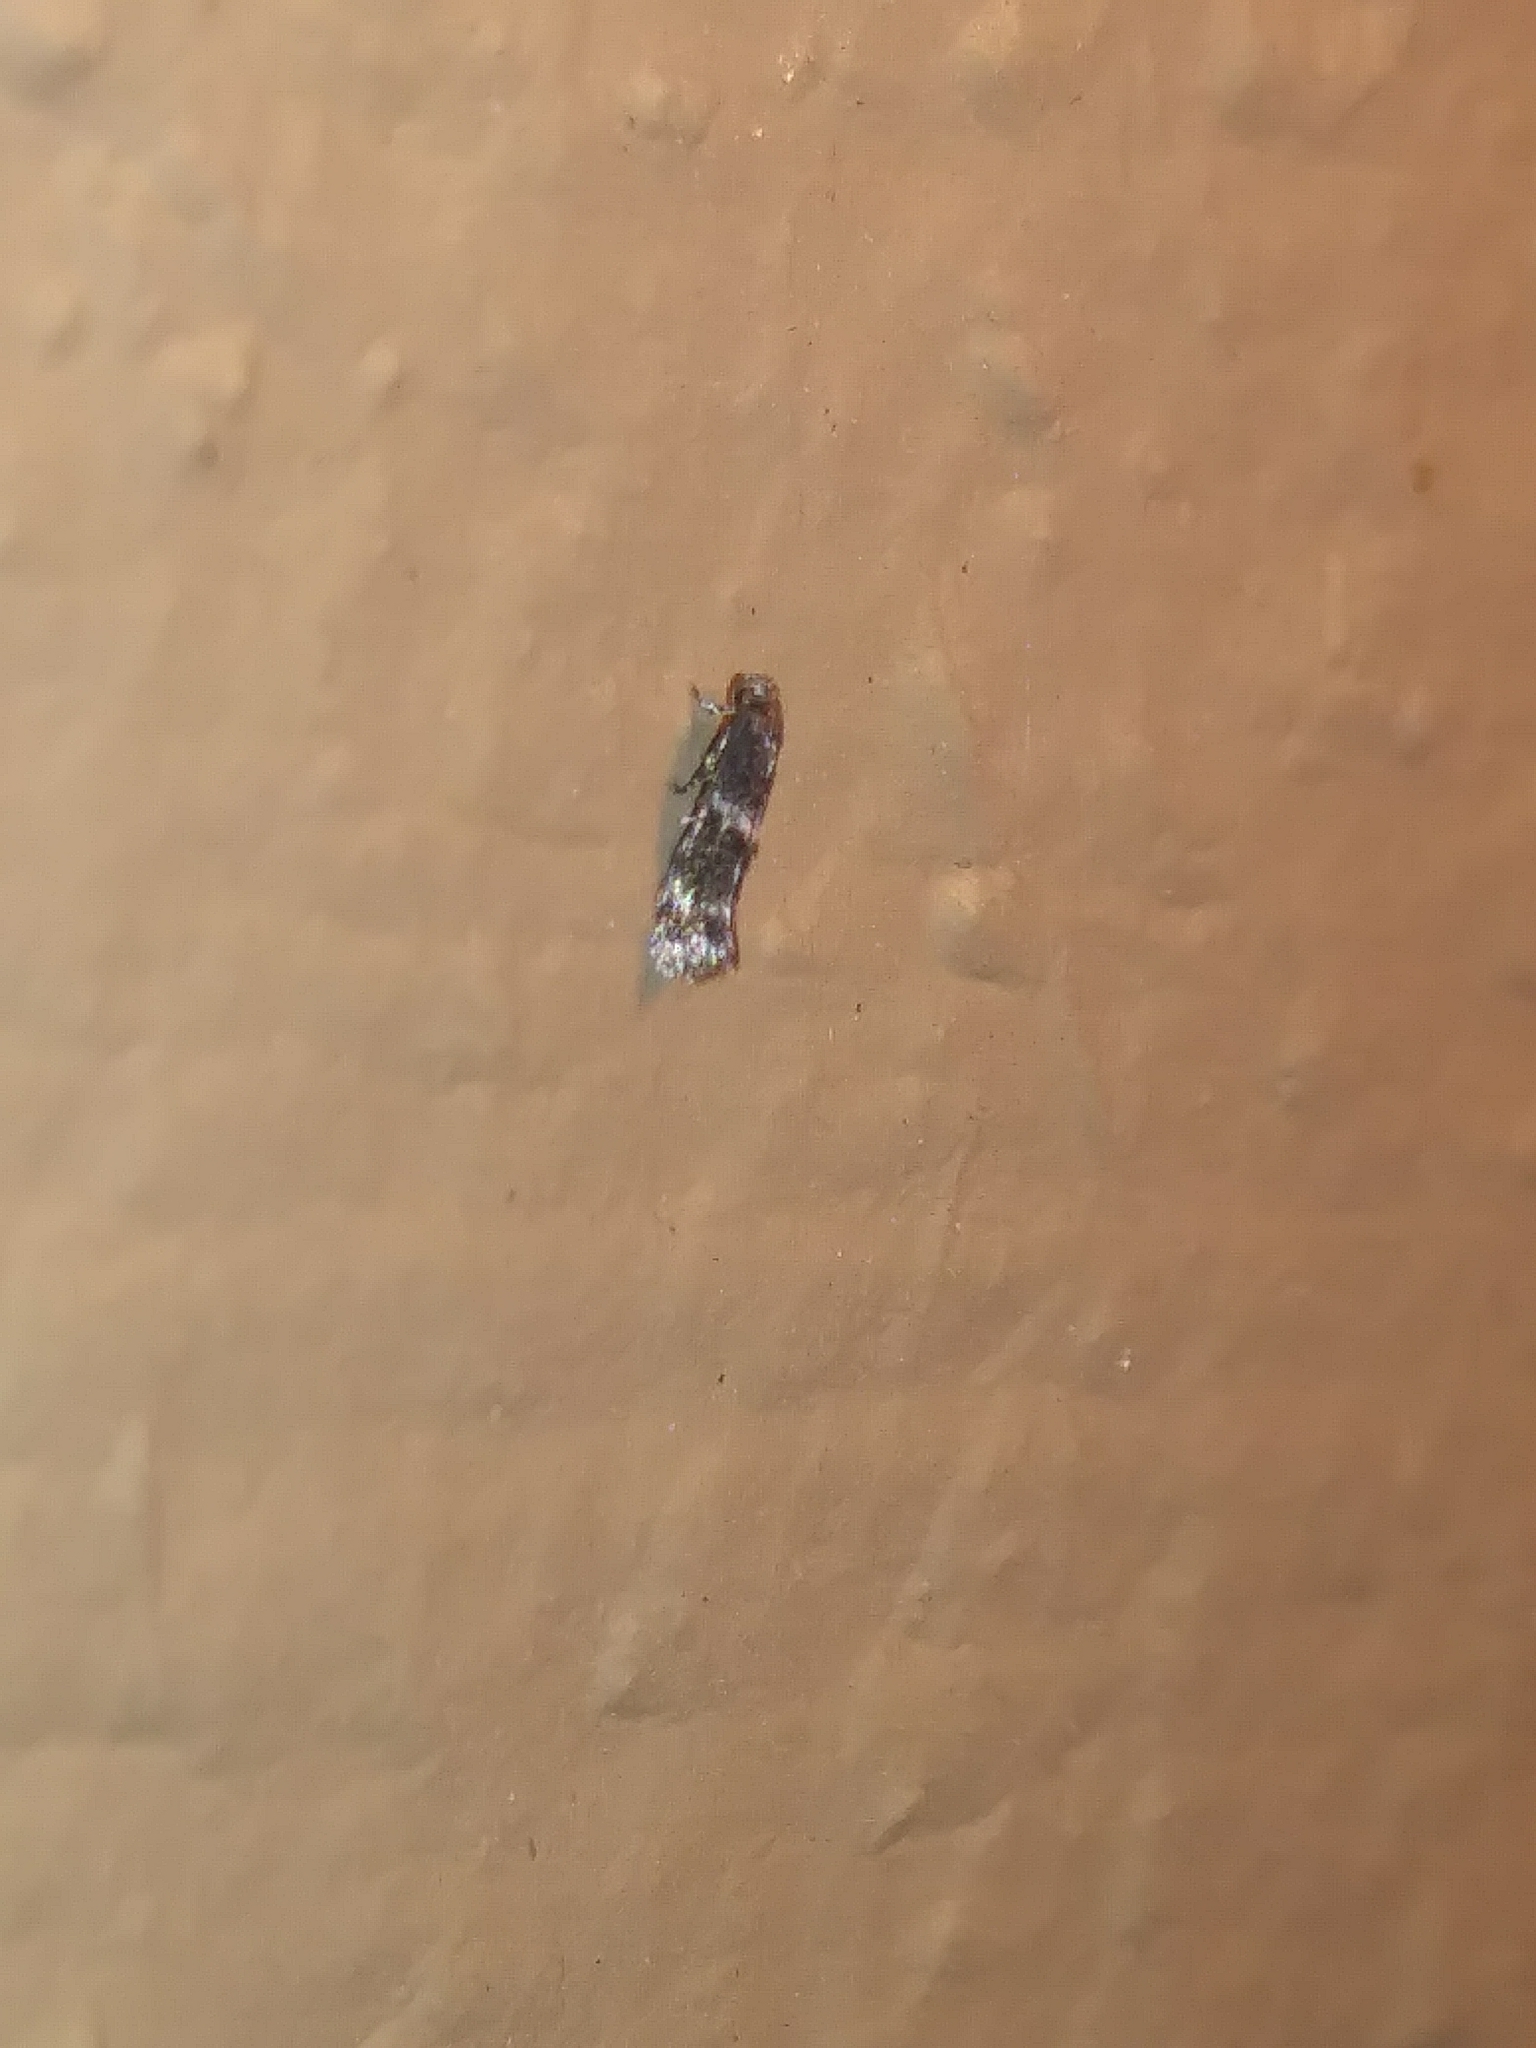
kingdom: Animalia
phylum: Arthropoda
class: Insecta
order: Lepidoptera
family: Elachistidae
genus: Elachista
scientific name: Elachista illectella
